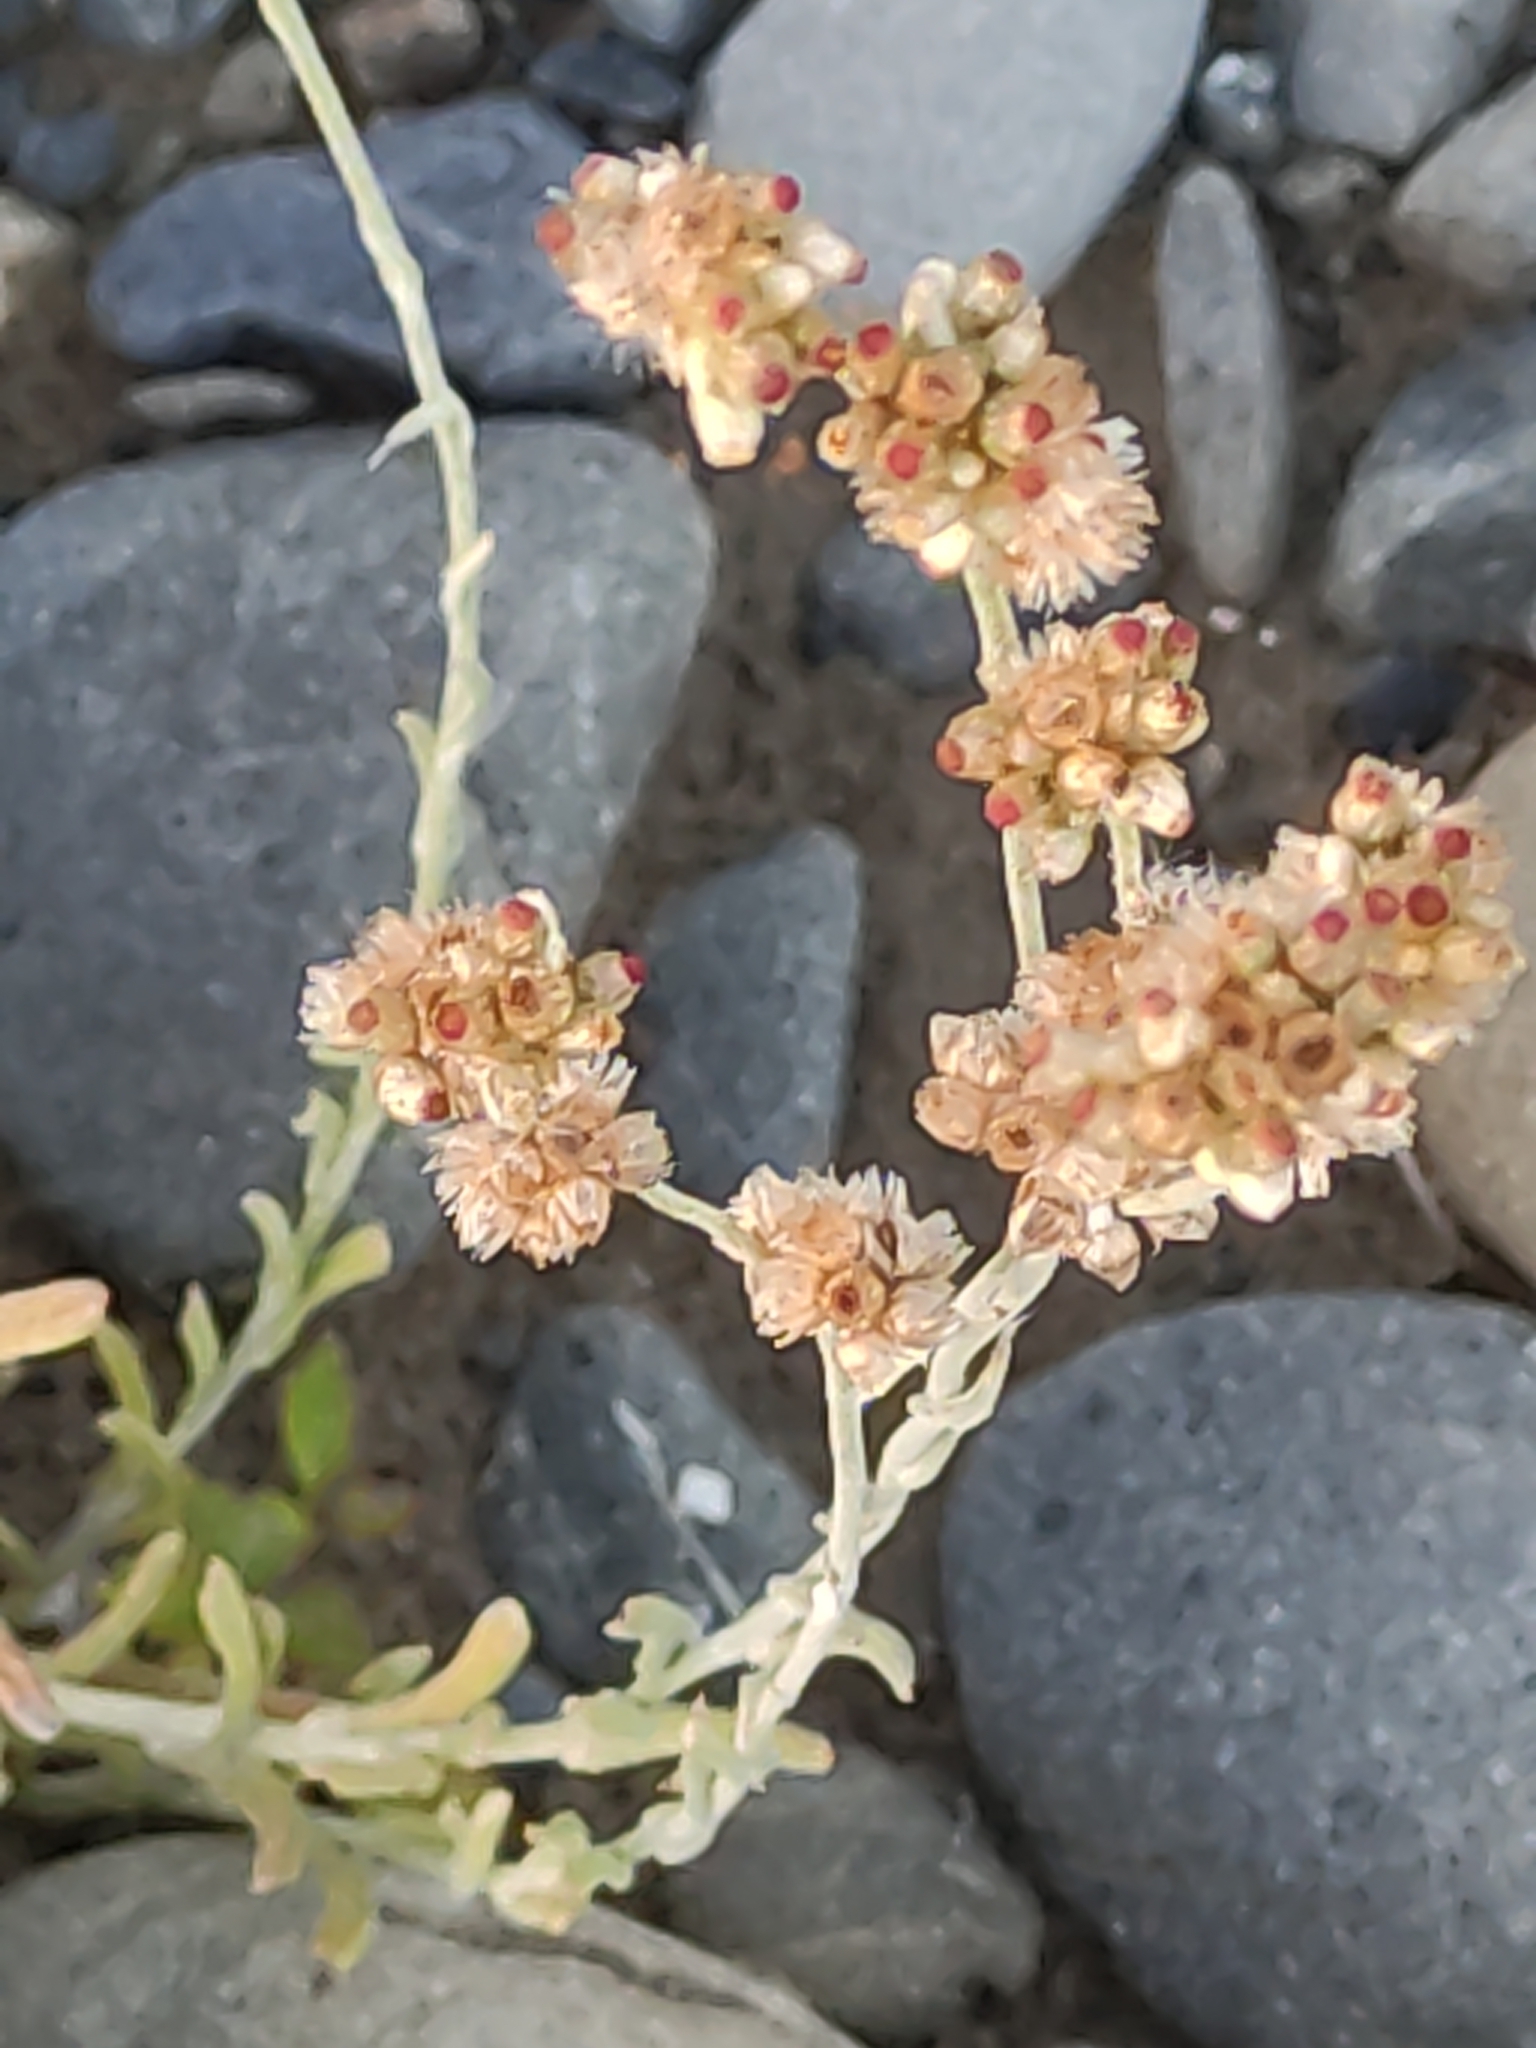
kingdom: Plantae
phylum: Tracheophyta
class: Magnoliopsida
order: Asterales
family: Asteraceae
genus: Helichrysum
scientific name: Helichrysum luteoalbum
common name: Daisy
